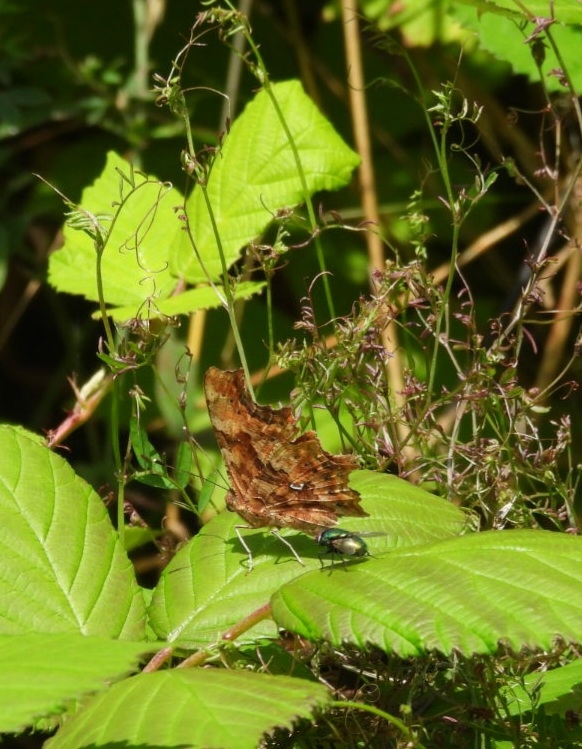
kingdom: Animalia
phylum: Arthropoda
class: Insecta
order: Lepidoptera
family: Nymphalidae
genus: Polygonia
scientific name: Polygonia c-album
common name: Comma
